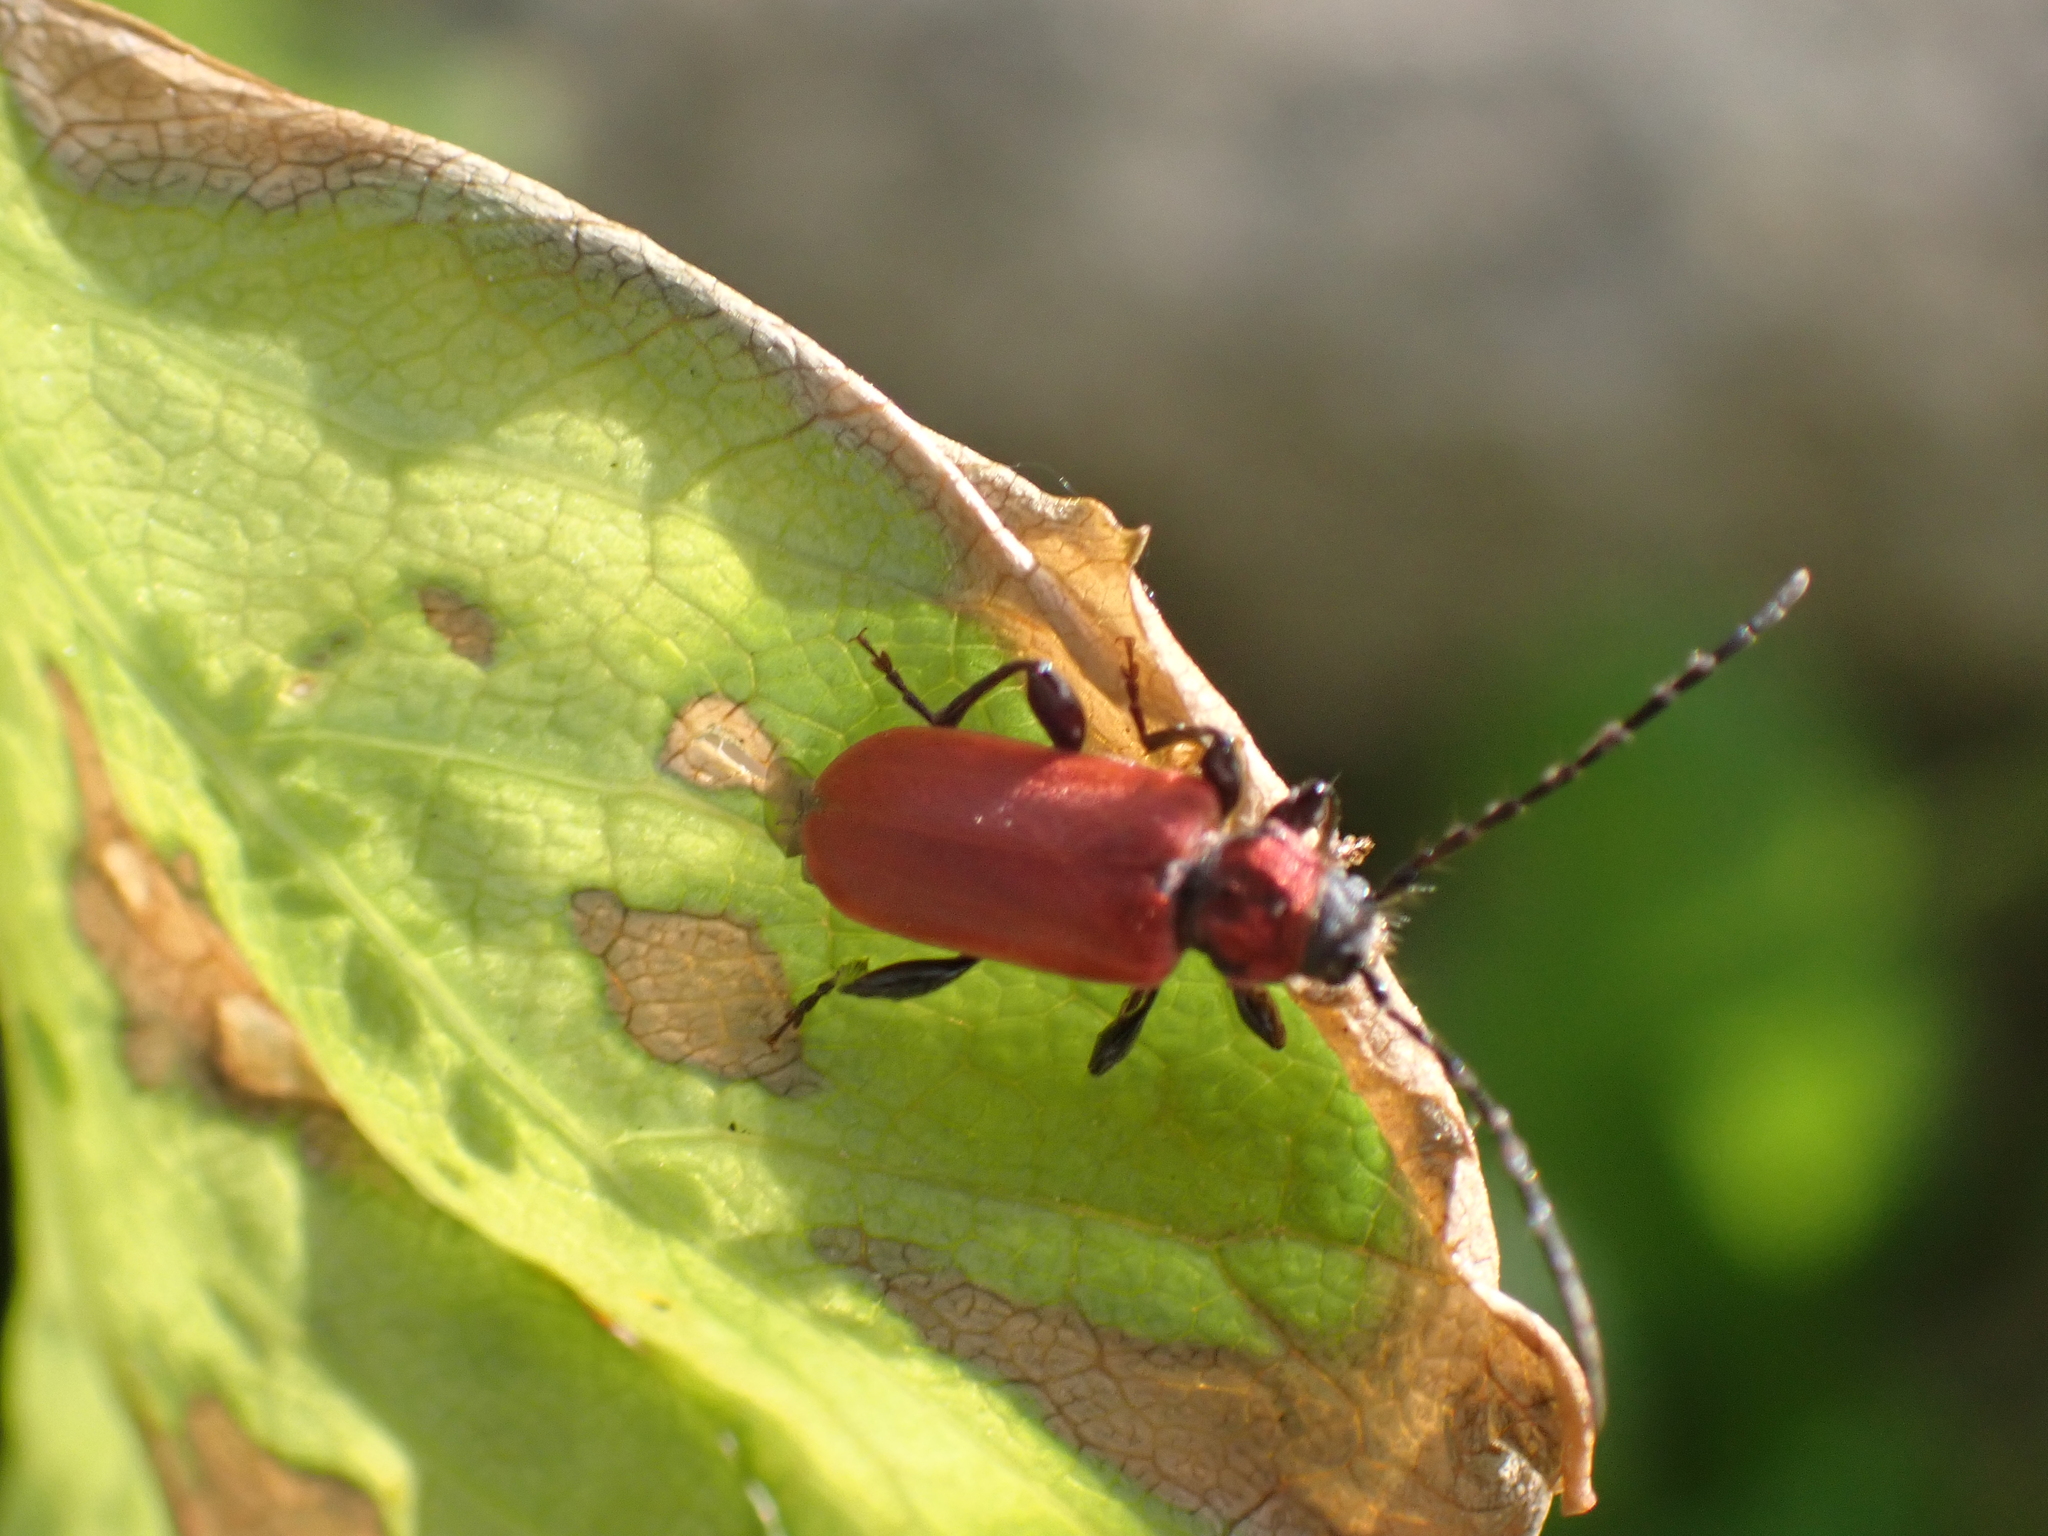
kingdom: Animalia
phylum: Arthropoda
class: Insecta
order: Coleoptera
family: Cerambycidae
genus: Pyrrhidium
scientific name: Pyrrhidium sanguineum
